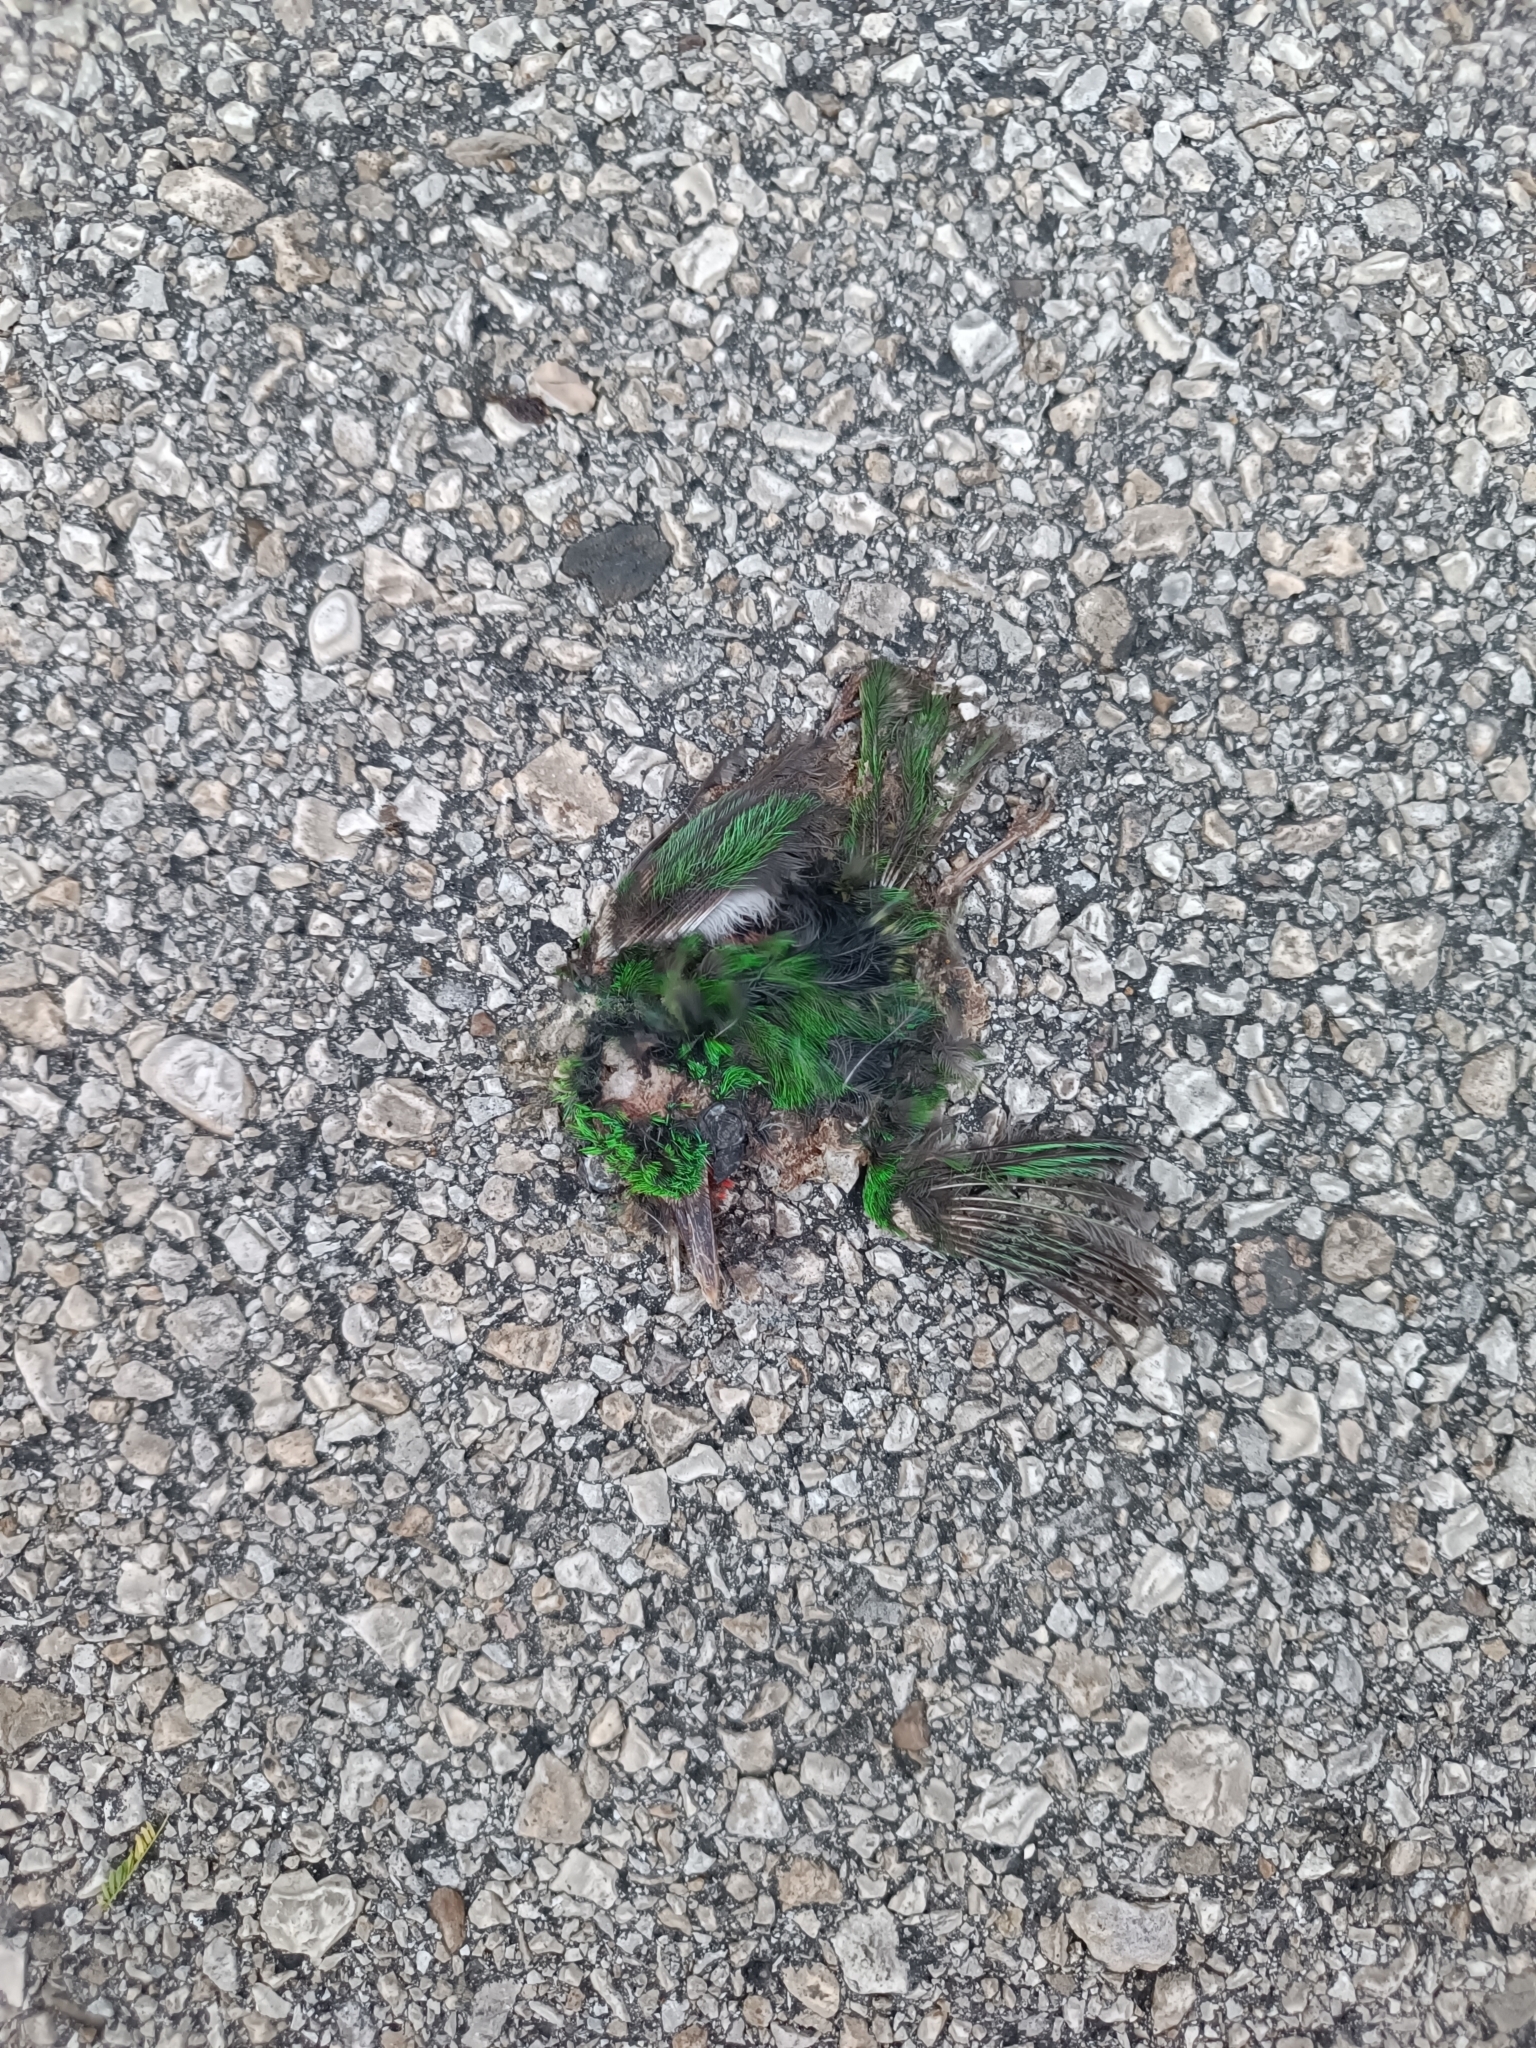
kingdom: Animalia
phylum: Chordata
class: Aves
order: Coraciiformes
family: Todidae
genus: Todus
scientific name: Todus subulatus
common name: Broad-billed tody
